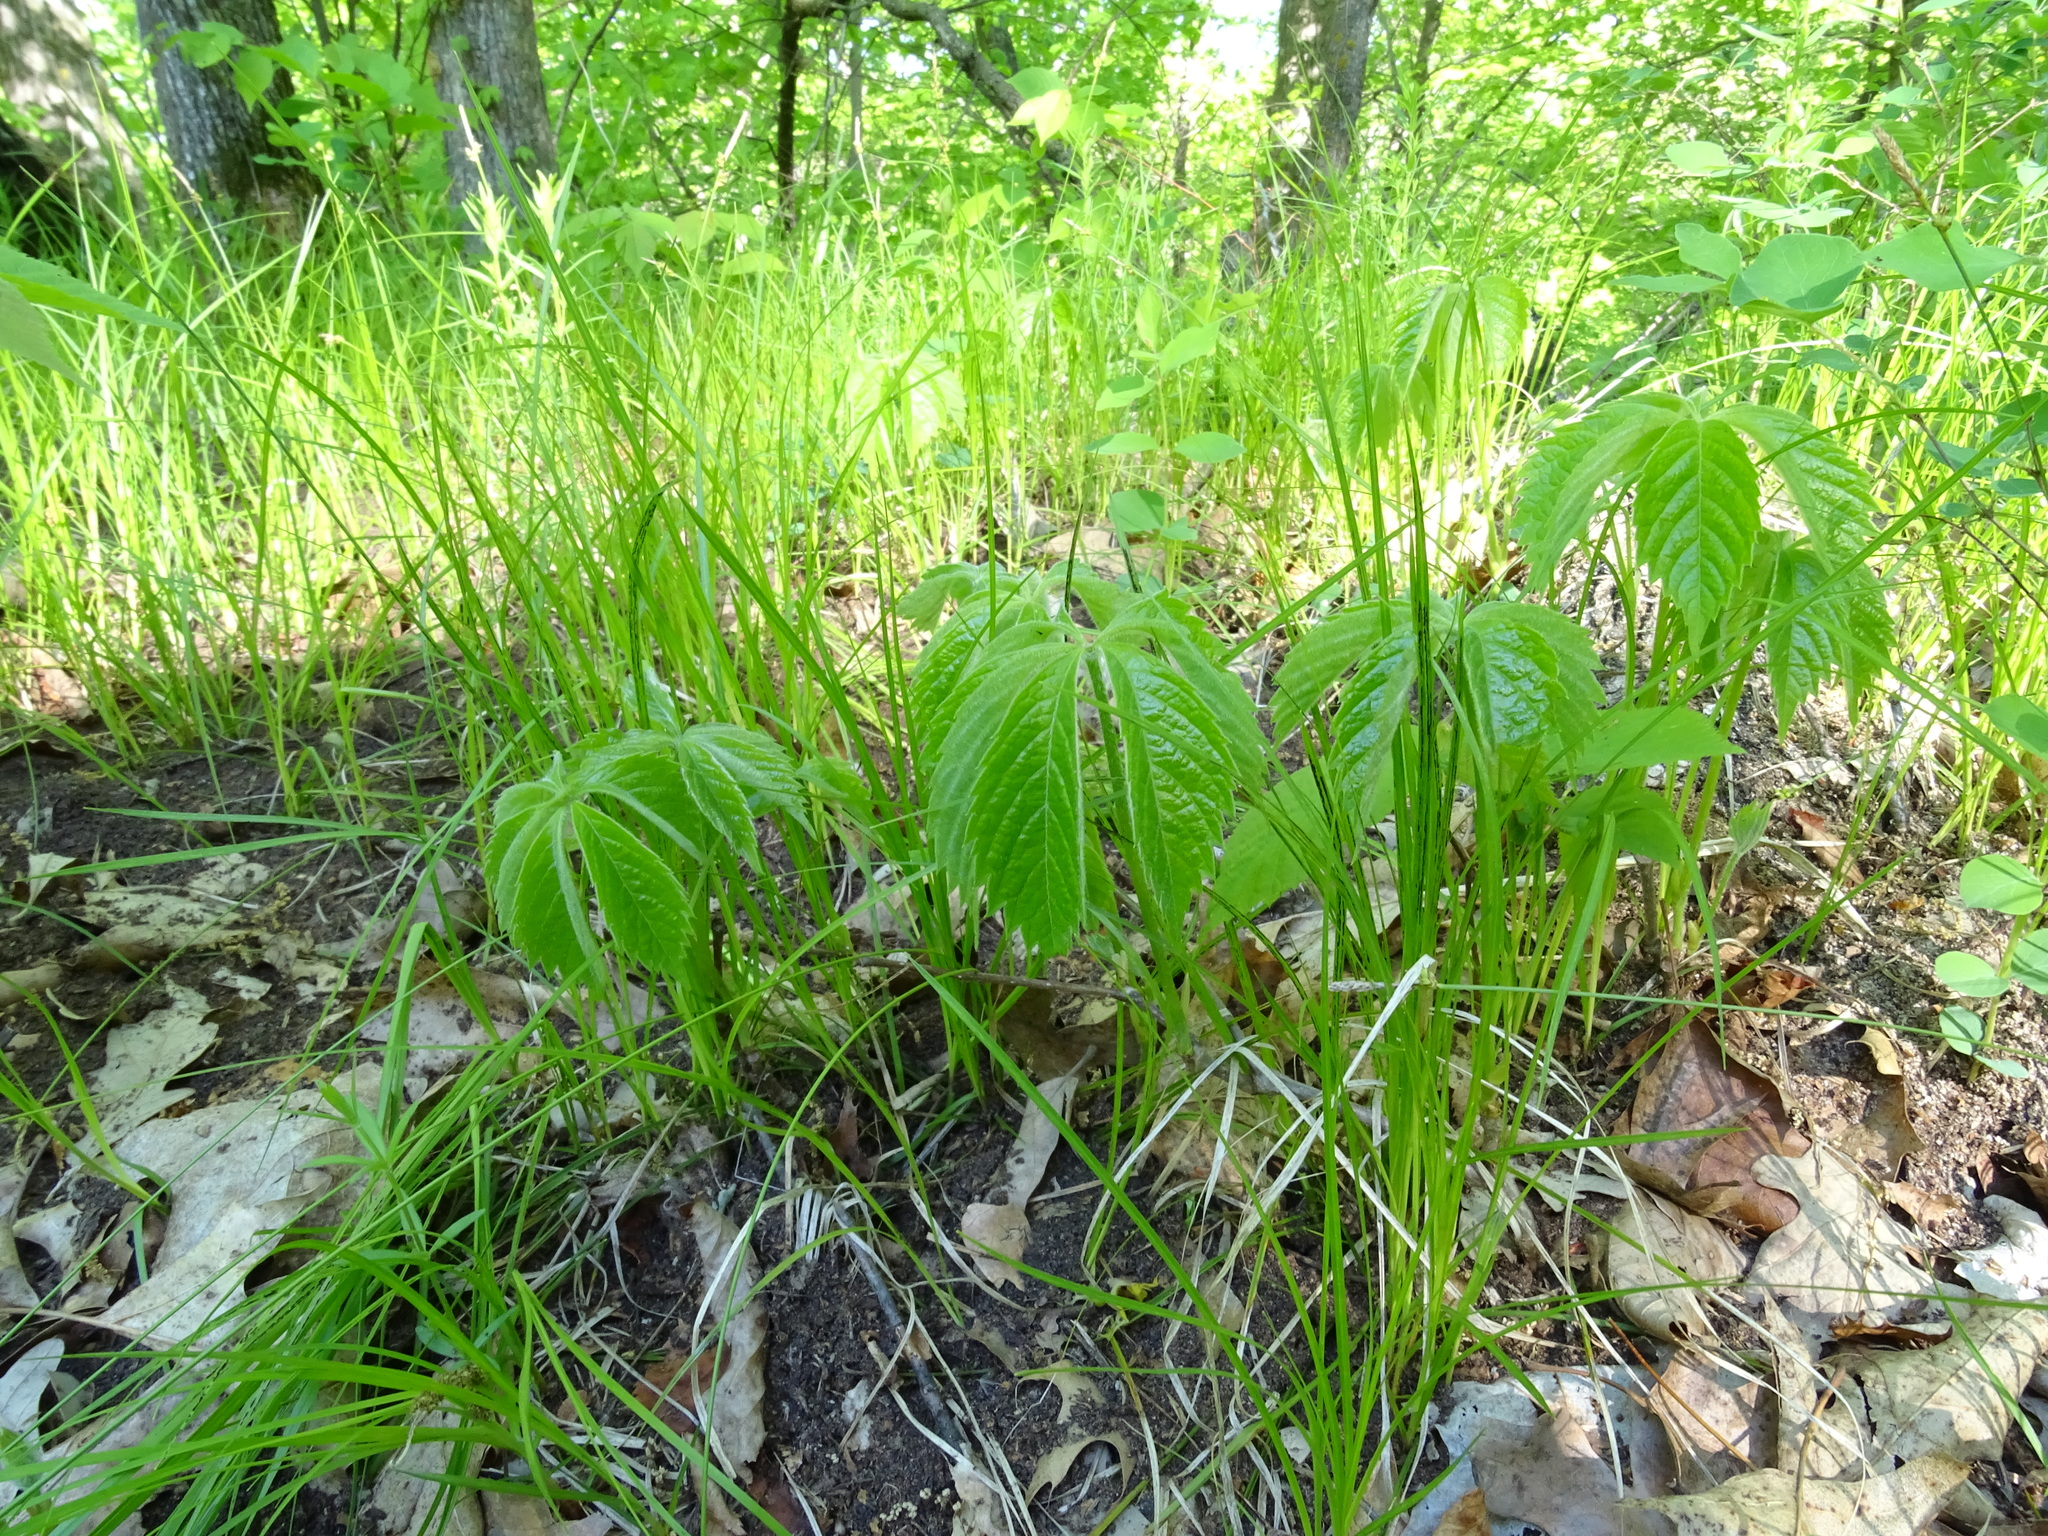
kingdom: Plantae
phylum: Tracheophyta
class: Magnoliopsida
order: Vitales
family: Vitaceae
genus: Parthenocissus
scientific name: Parthenocissus quinquefolia
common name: Virginia-creeper
